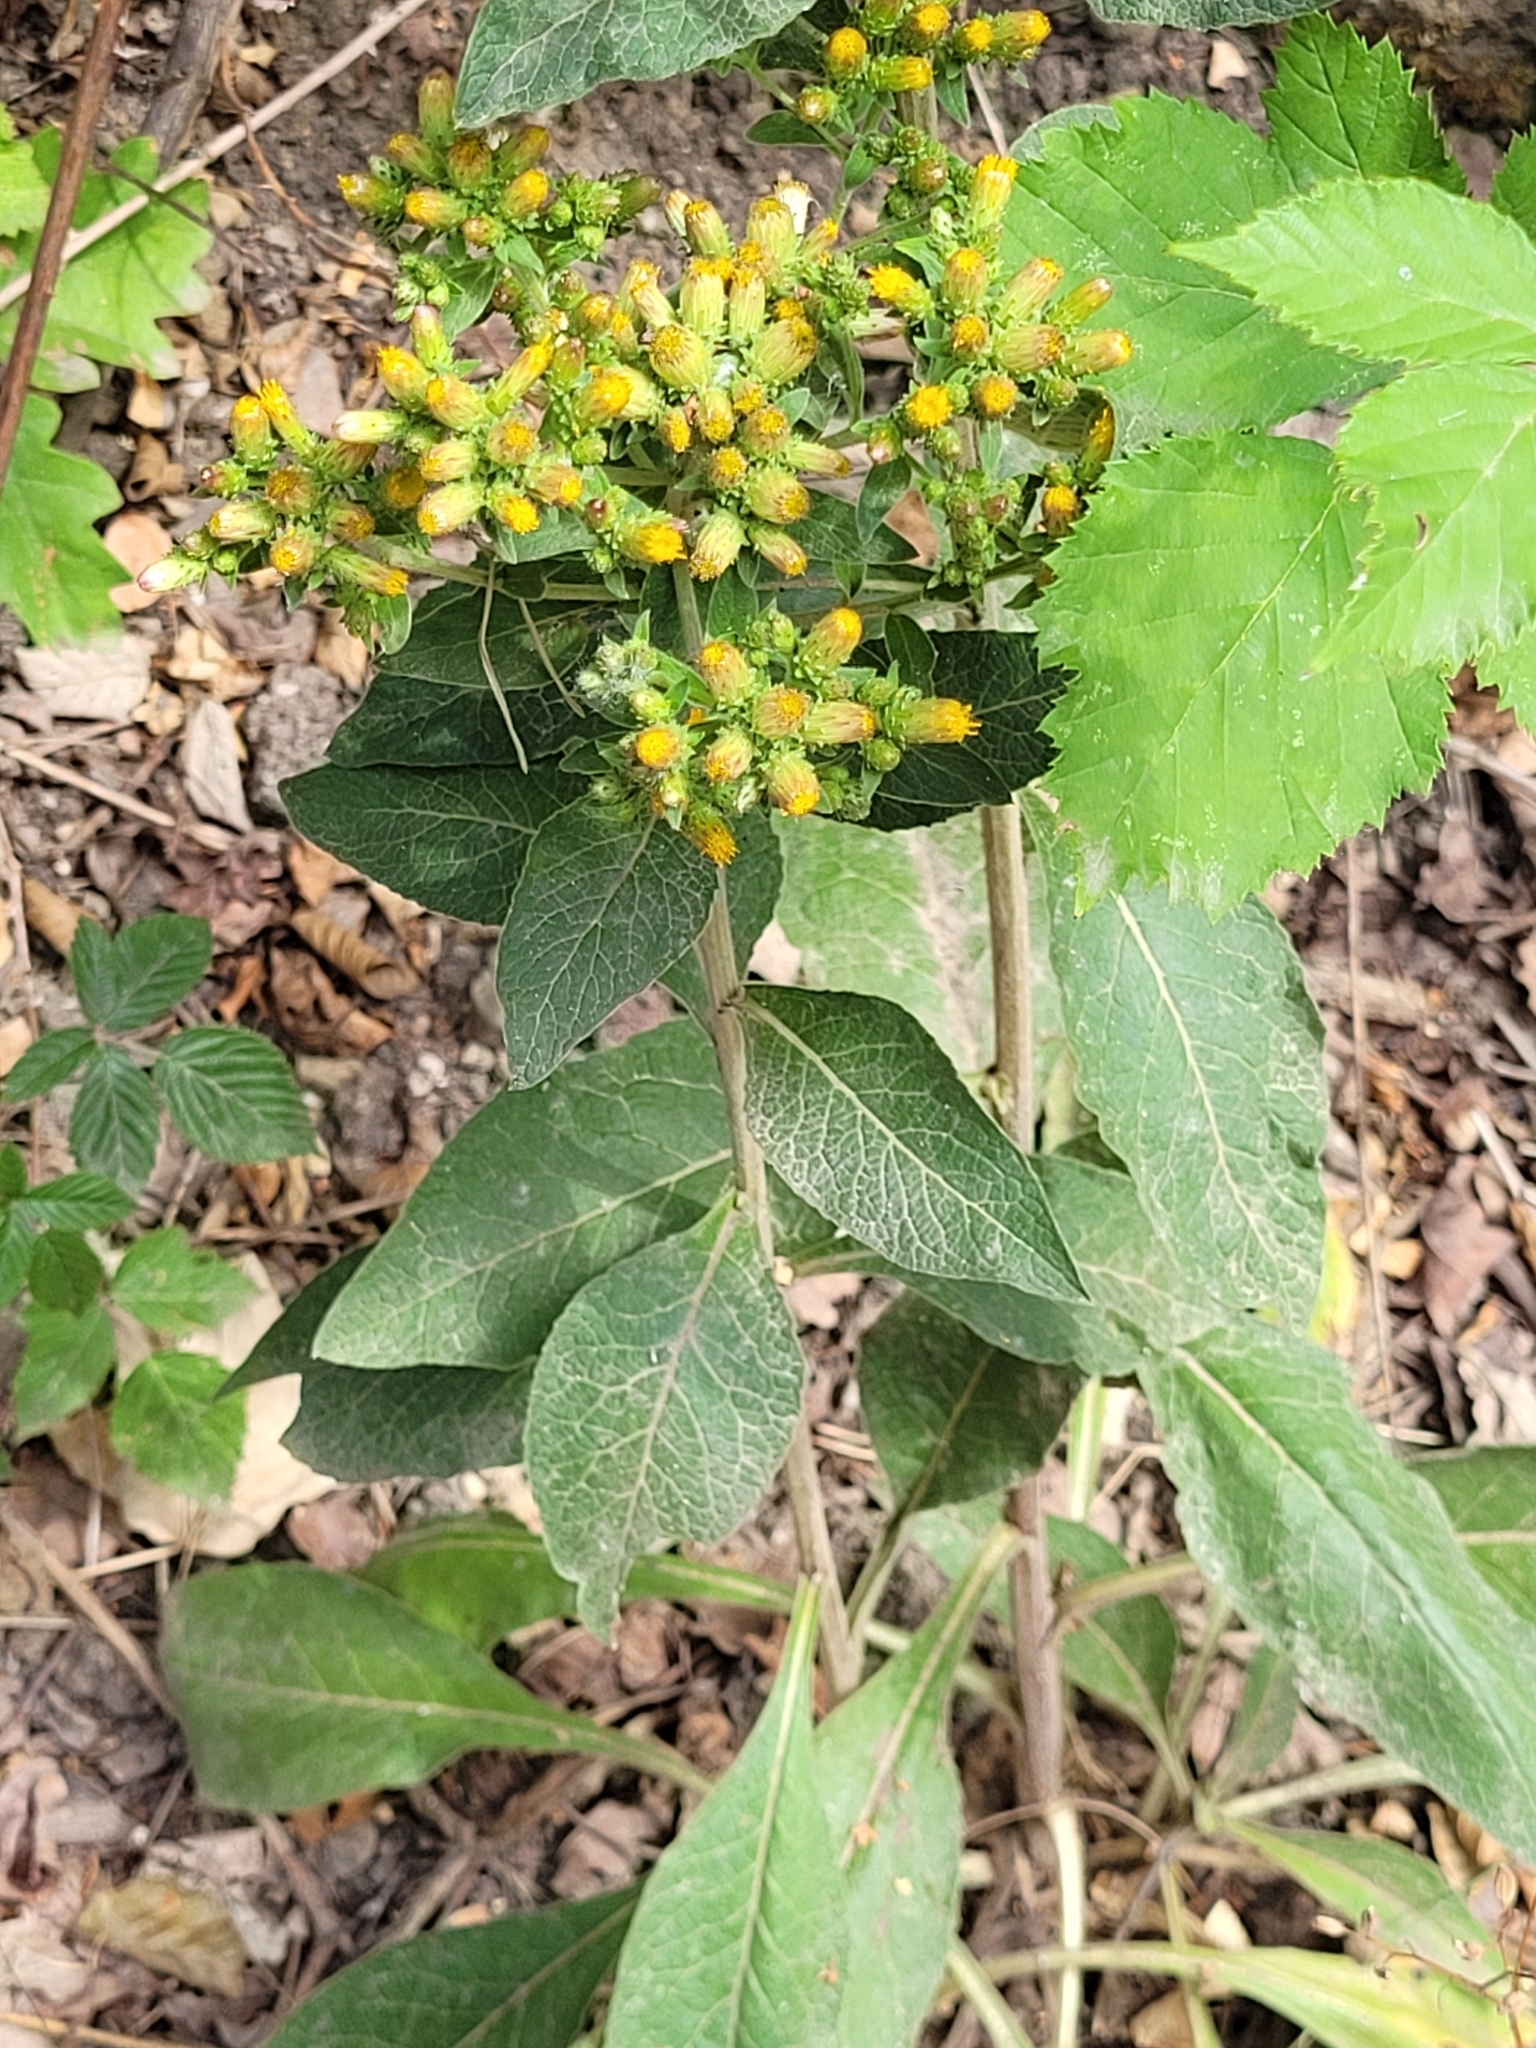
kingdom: Plantae
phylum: Tracheophyta
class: Magnoliopsida
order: Asterales
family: Asteraceae
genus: Pentanema
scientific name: Pentanema squarrosum
